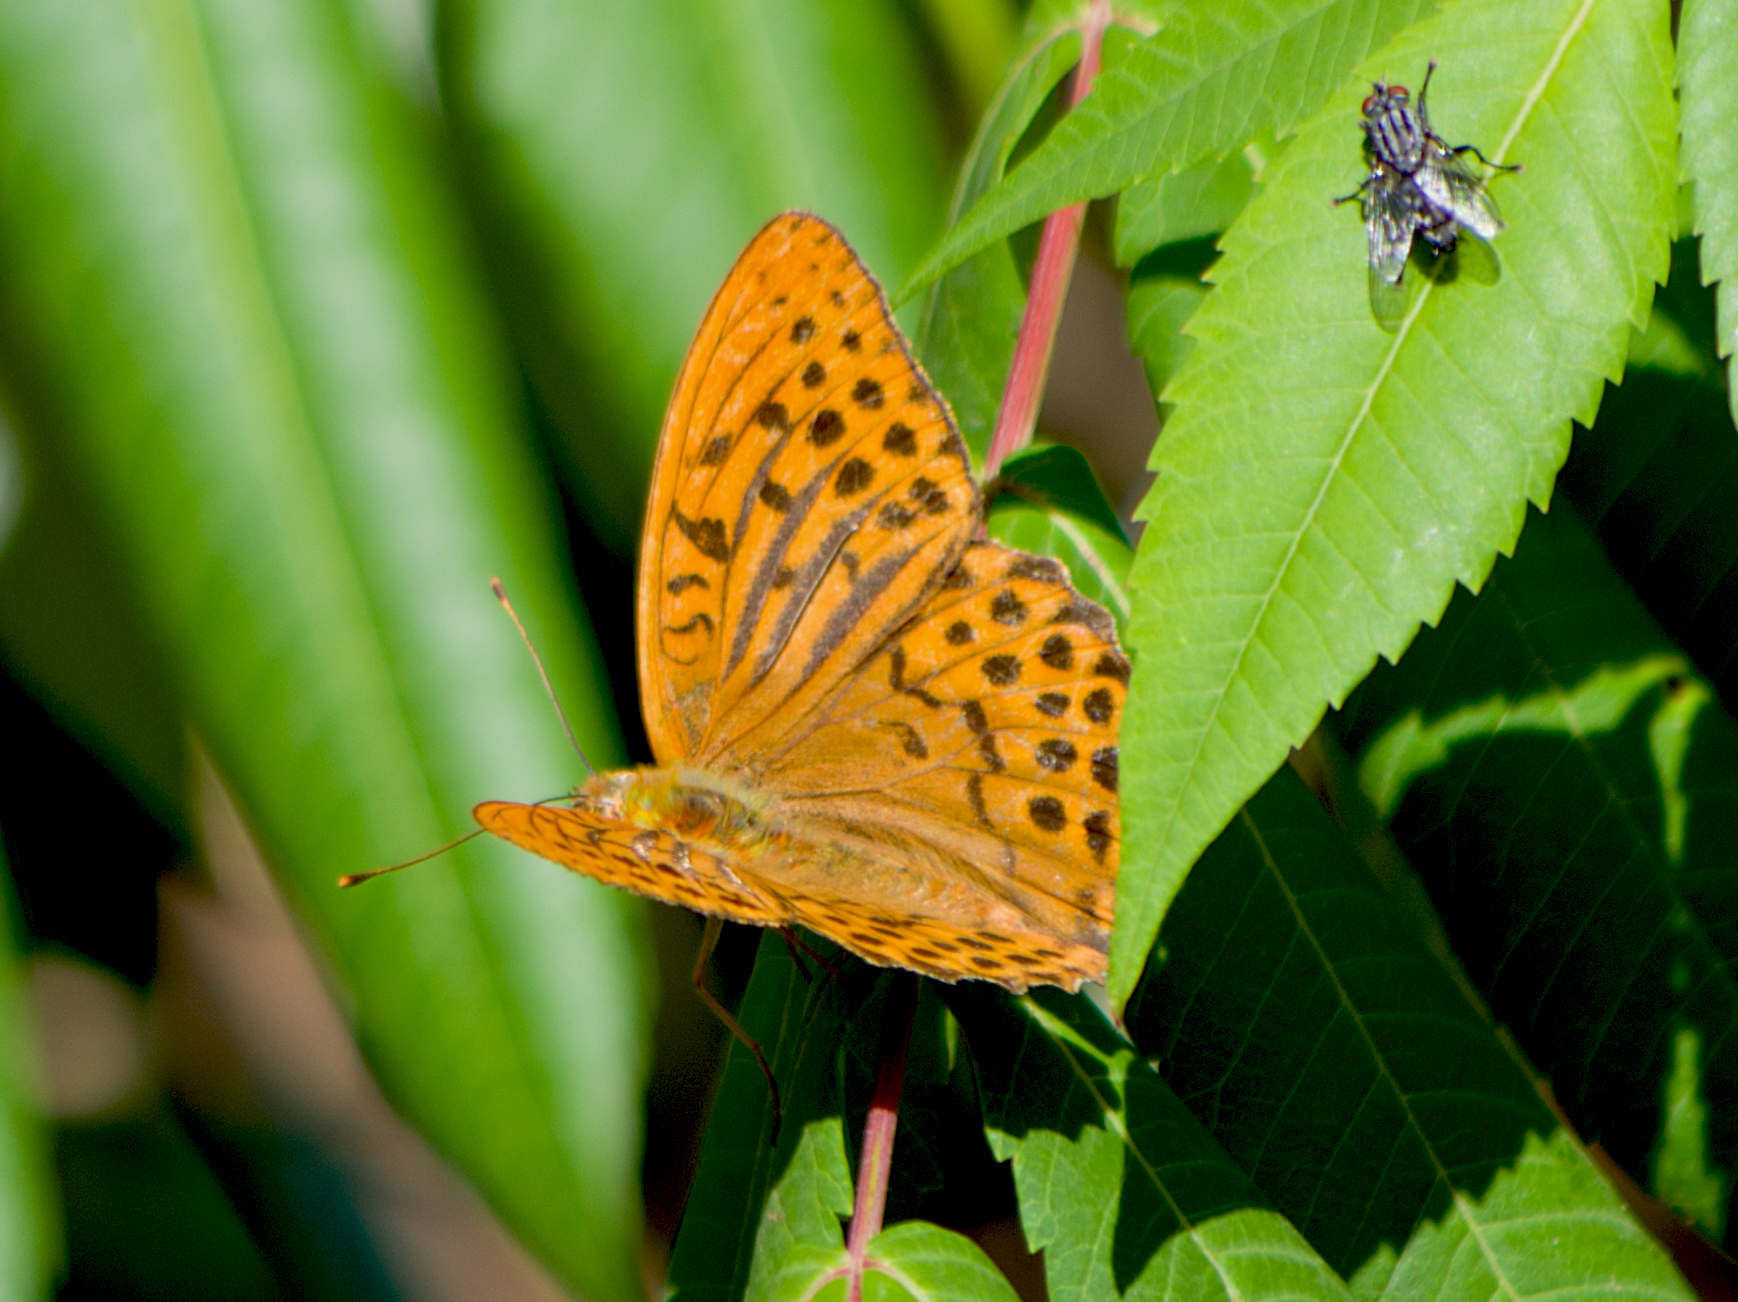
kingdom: Animalia
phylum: Arthropoda
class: Insecta
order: Lepidoptera
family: Nymphalidae
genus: Argynnis
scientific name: Argynnis paphia
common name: Silver-washed fritillary
